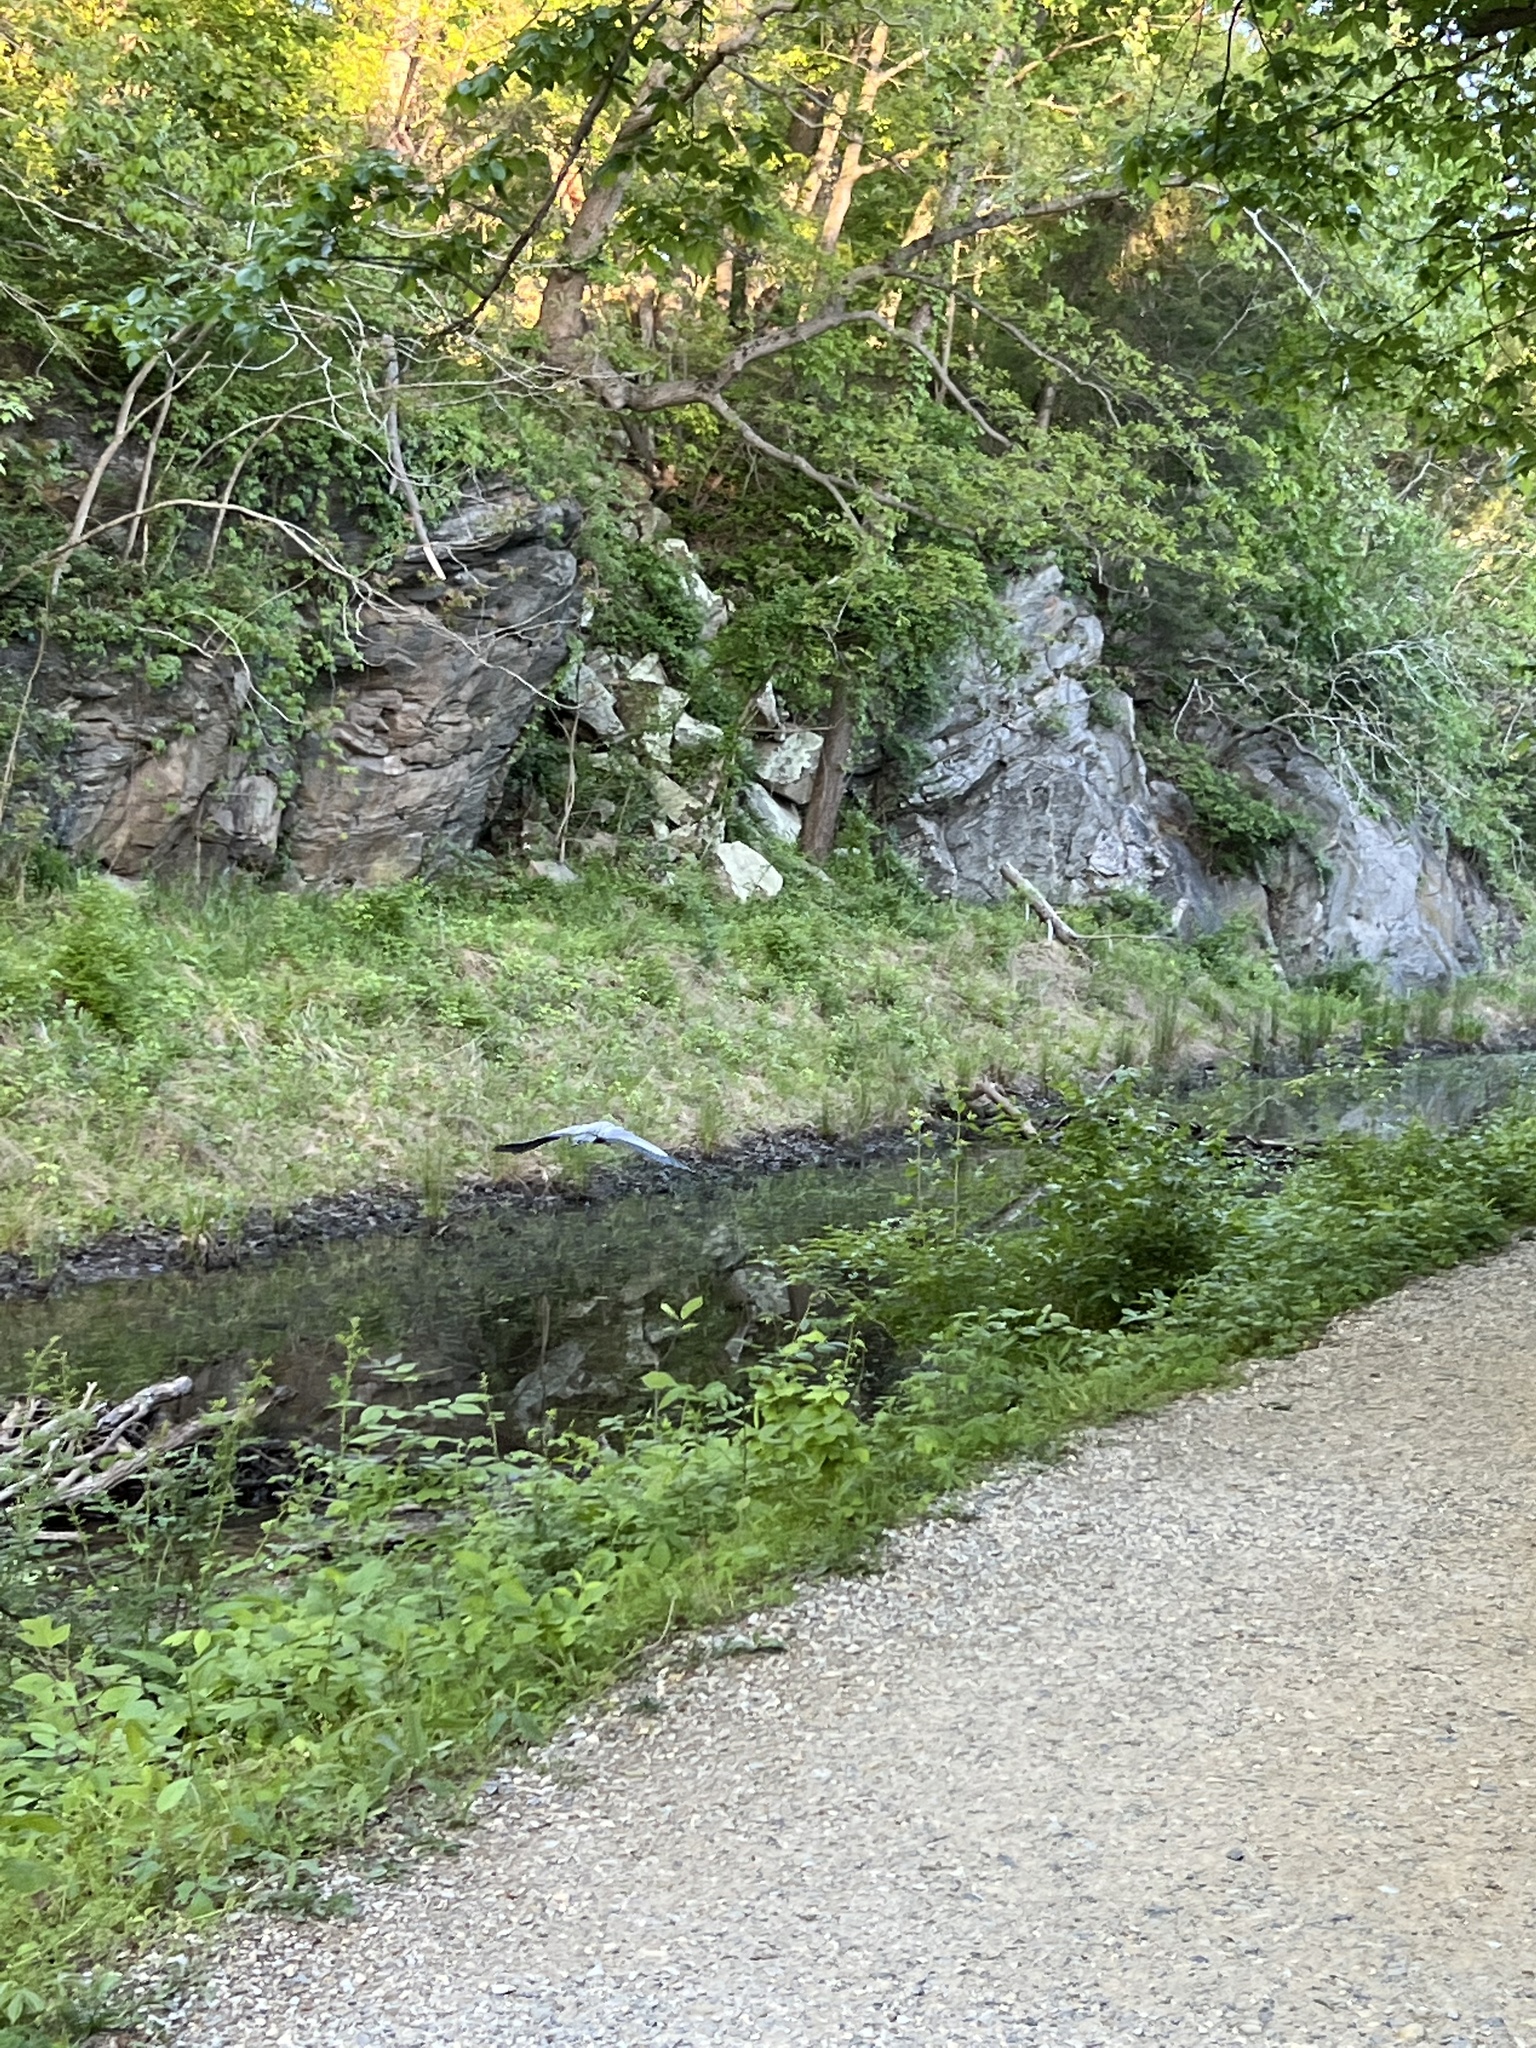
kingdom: Animalia
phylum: Chordata
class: Aves
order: Pelecaniformes
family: Ardeidae
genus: Ardea
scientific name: Ardea herodias
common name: Great blue heron
